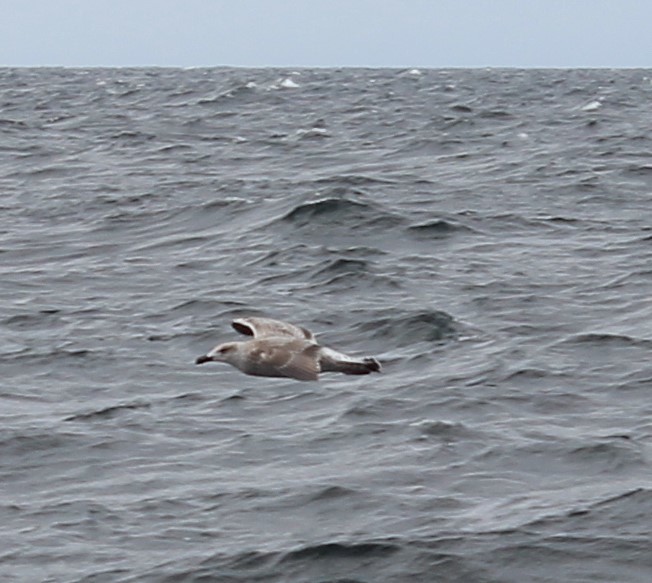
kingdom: Animalia
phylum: Chordata
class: Aves
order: Charadriiformes
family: Laridae
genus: Larus
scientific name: Larus marinus
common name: Great black-backed gull
